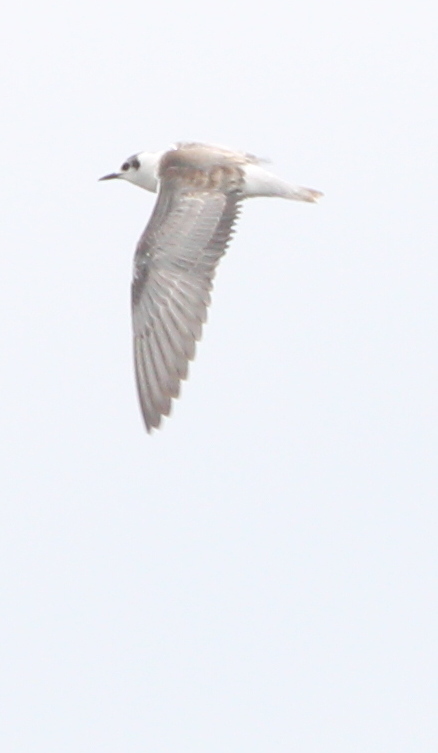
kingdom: Animalia
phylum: Chordata
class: Aves
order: Charadriiformes
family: Laridae
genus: Chlidonias
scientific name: Chlidonias leucopterus
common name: White-winged tern
